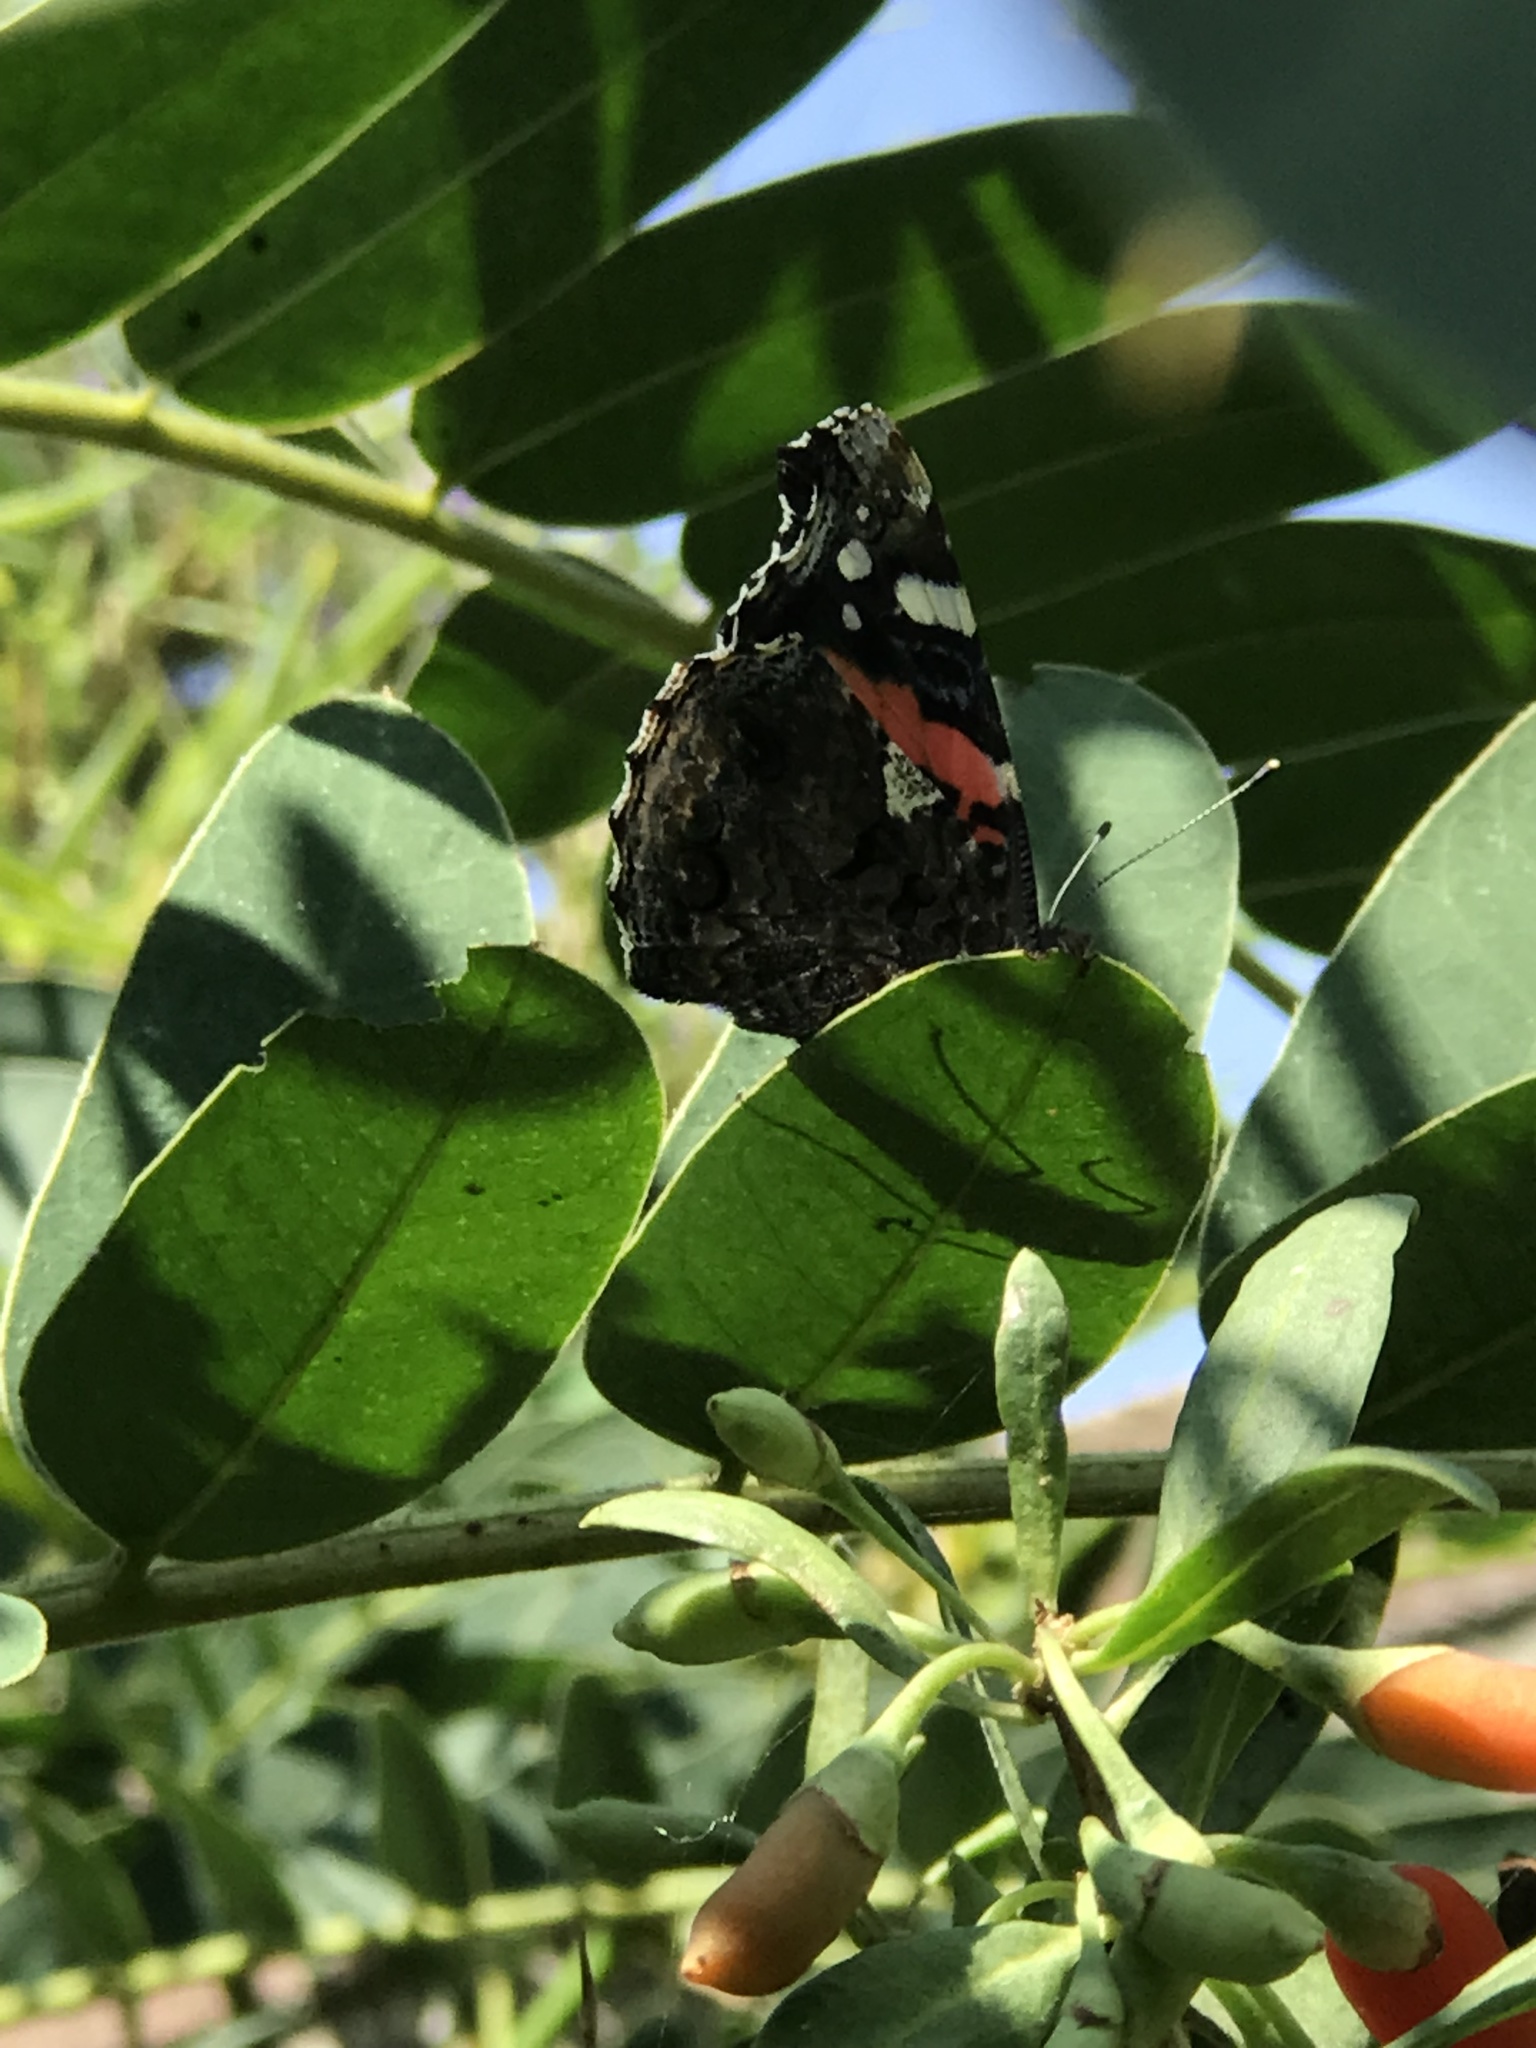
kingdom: Animalia
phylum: Arthropoda
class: Insecta
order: Lepidoptera
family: Nymphalidae
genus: Vanessa
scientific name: Vanessa atalanta
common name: Red admiral
